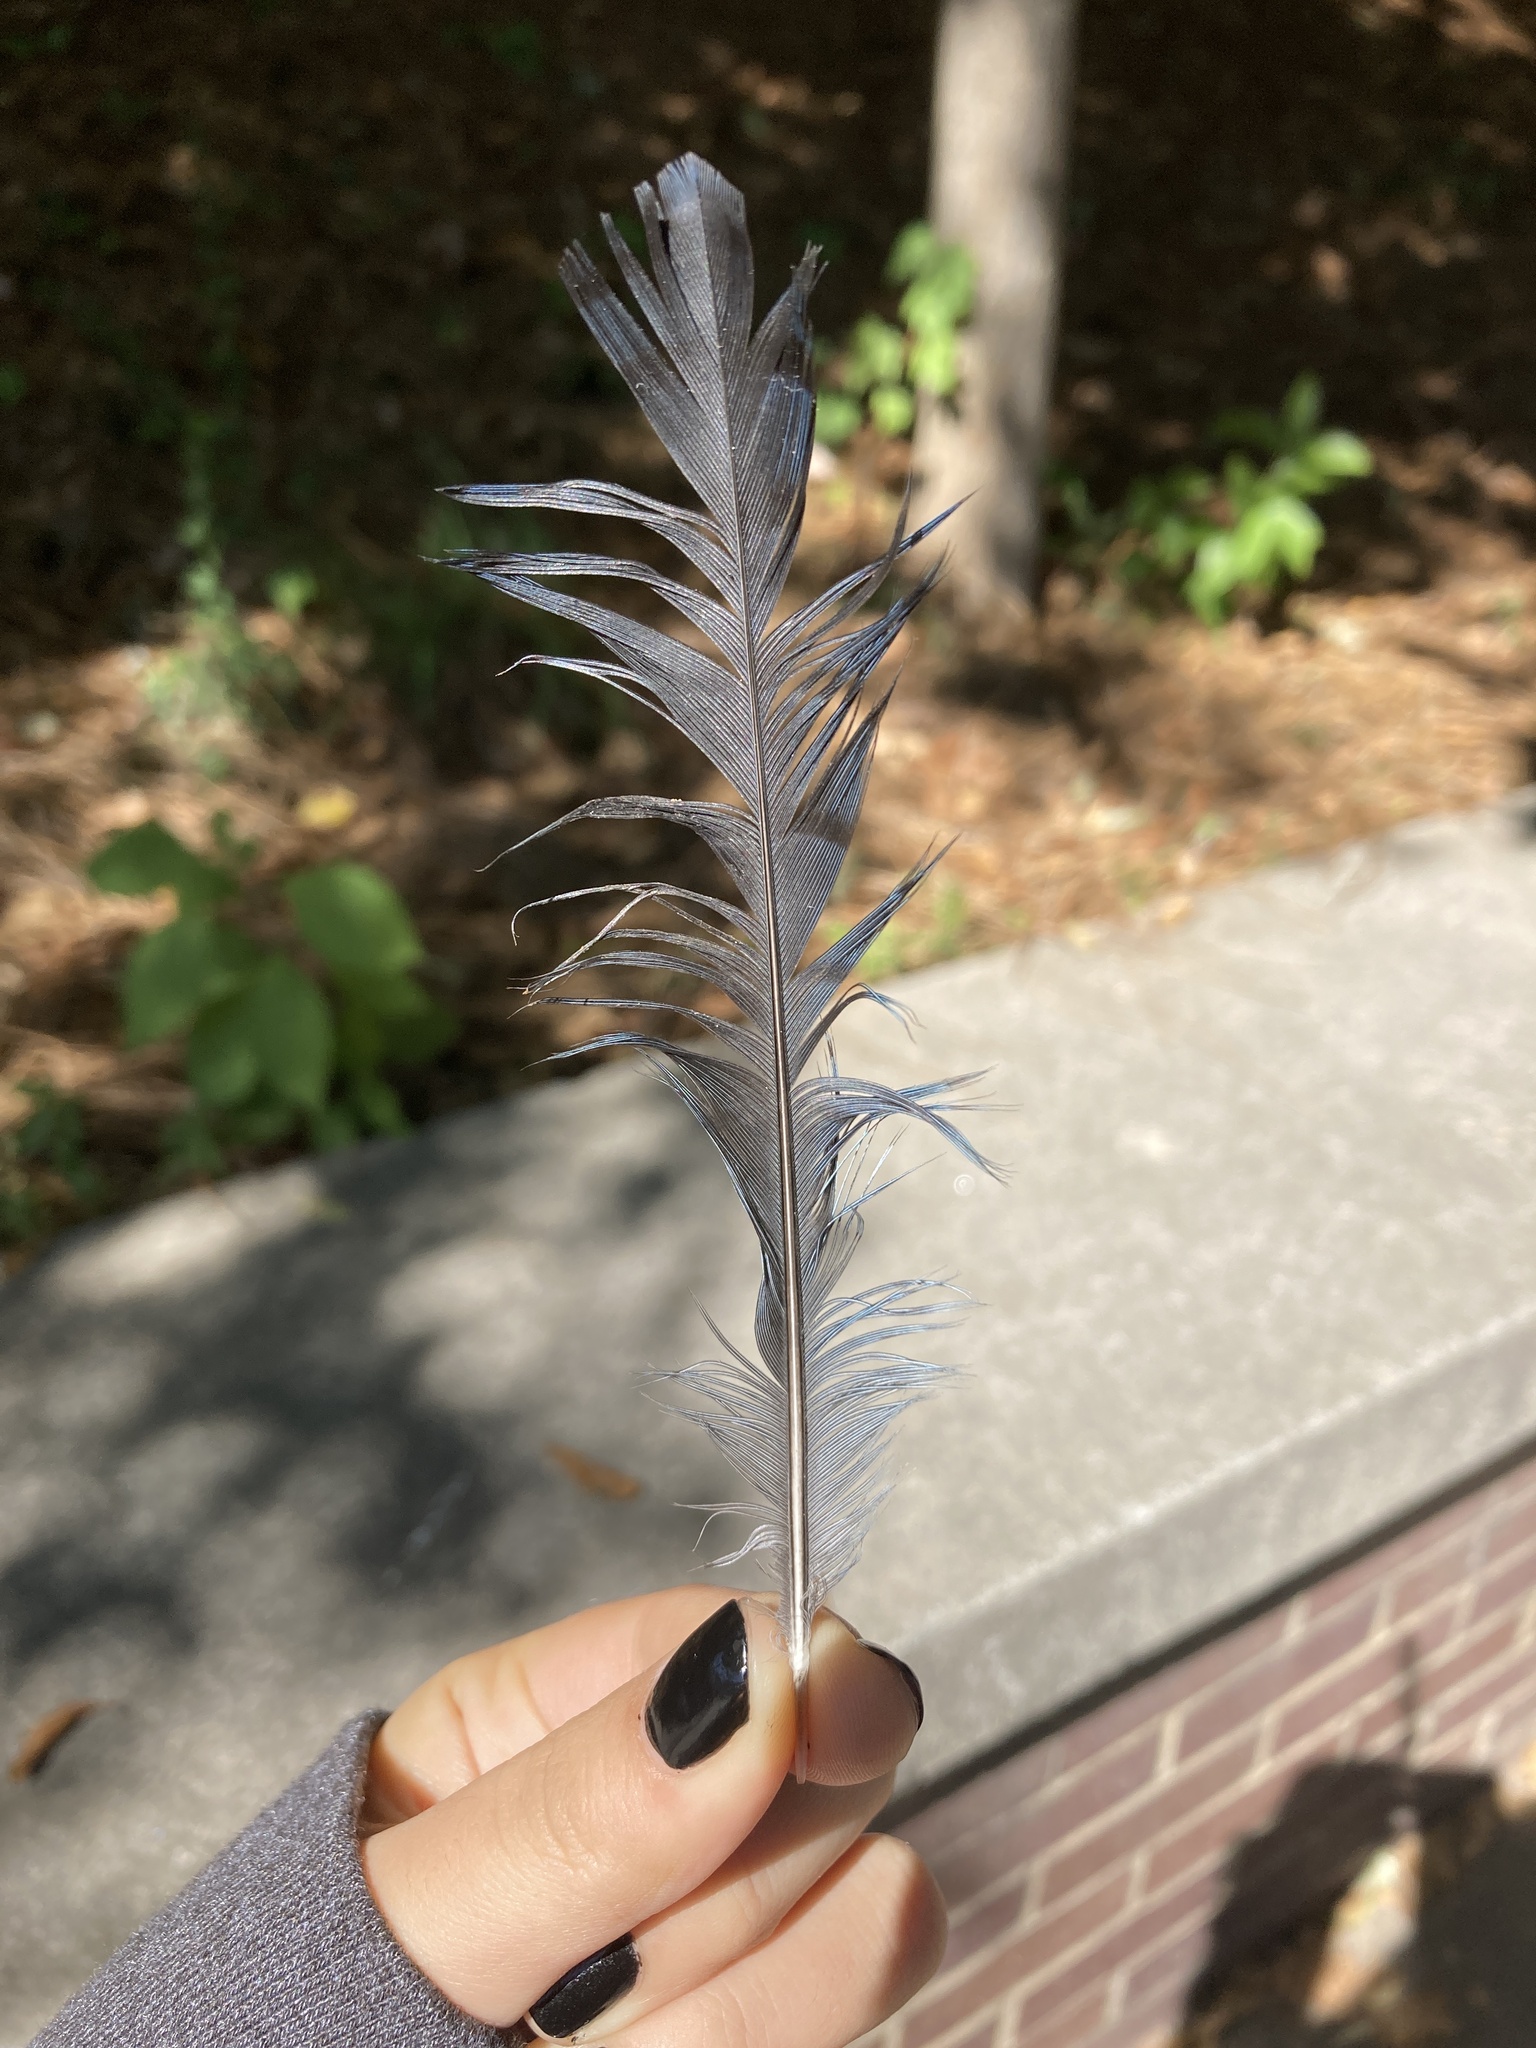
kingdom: Animalia
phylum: Chordata
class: Aves
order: Passeriformes
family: Corvidae
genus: Cyanocitta
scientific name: Cyanocitta cristata
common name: Blue jay
